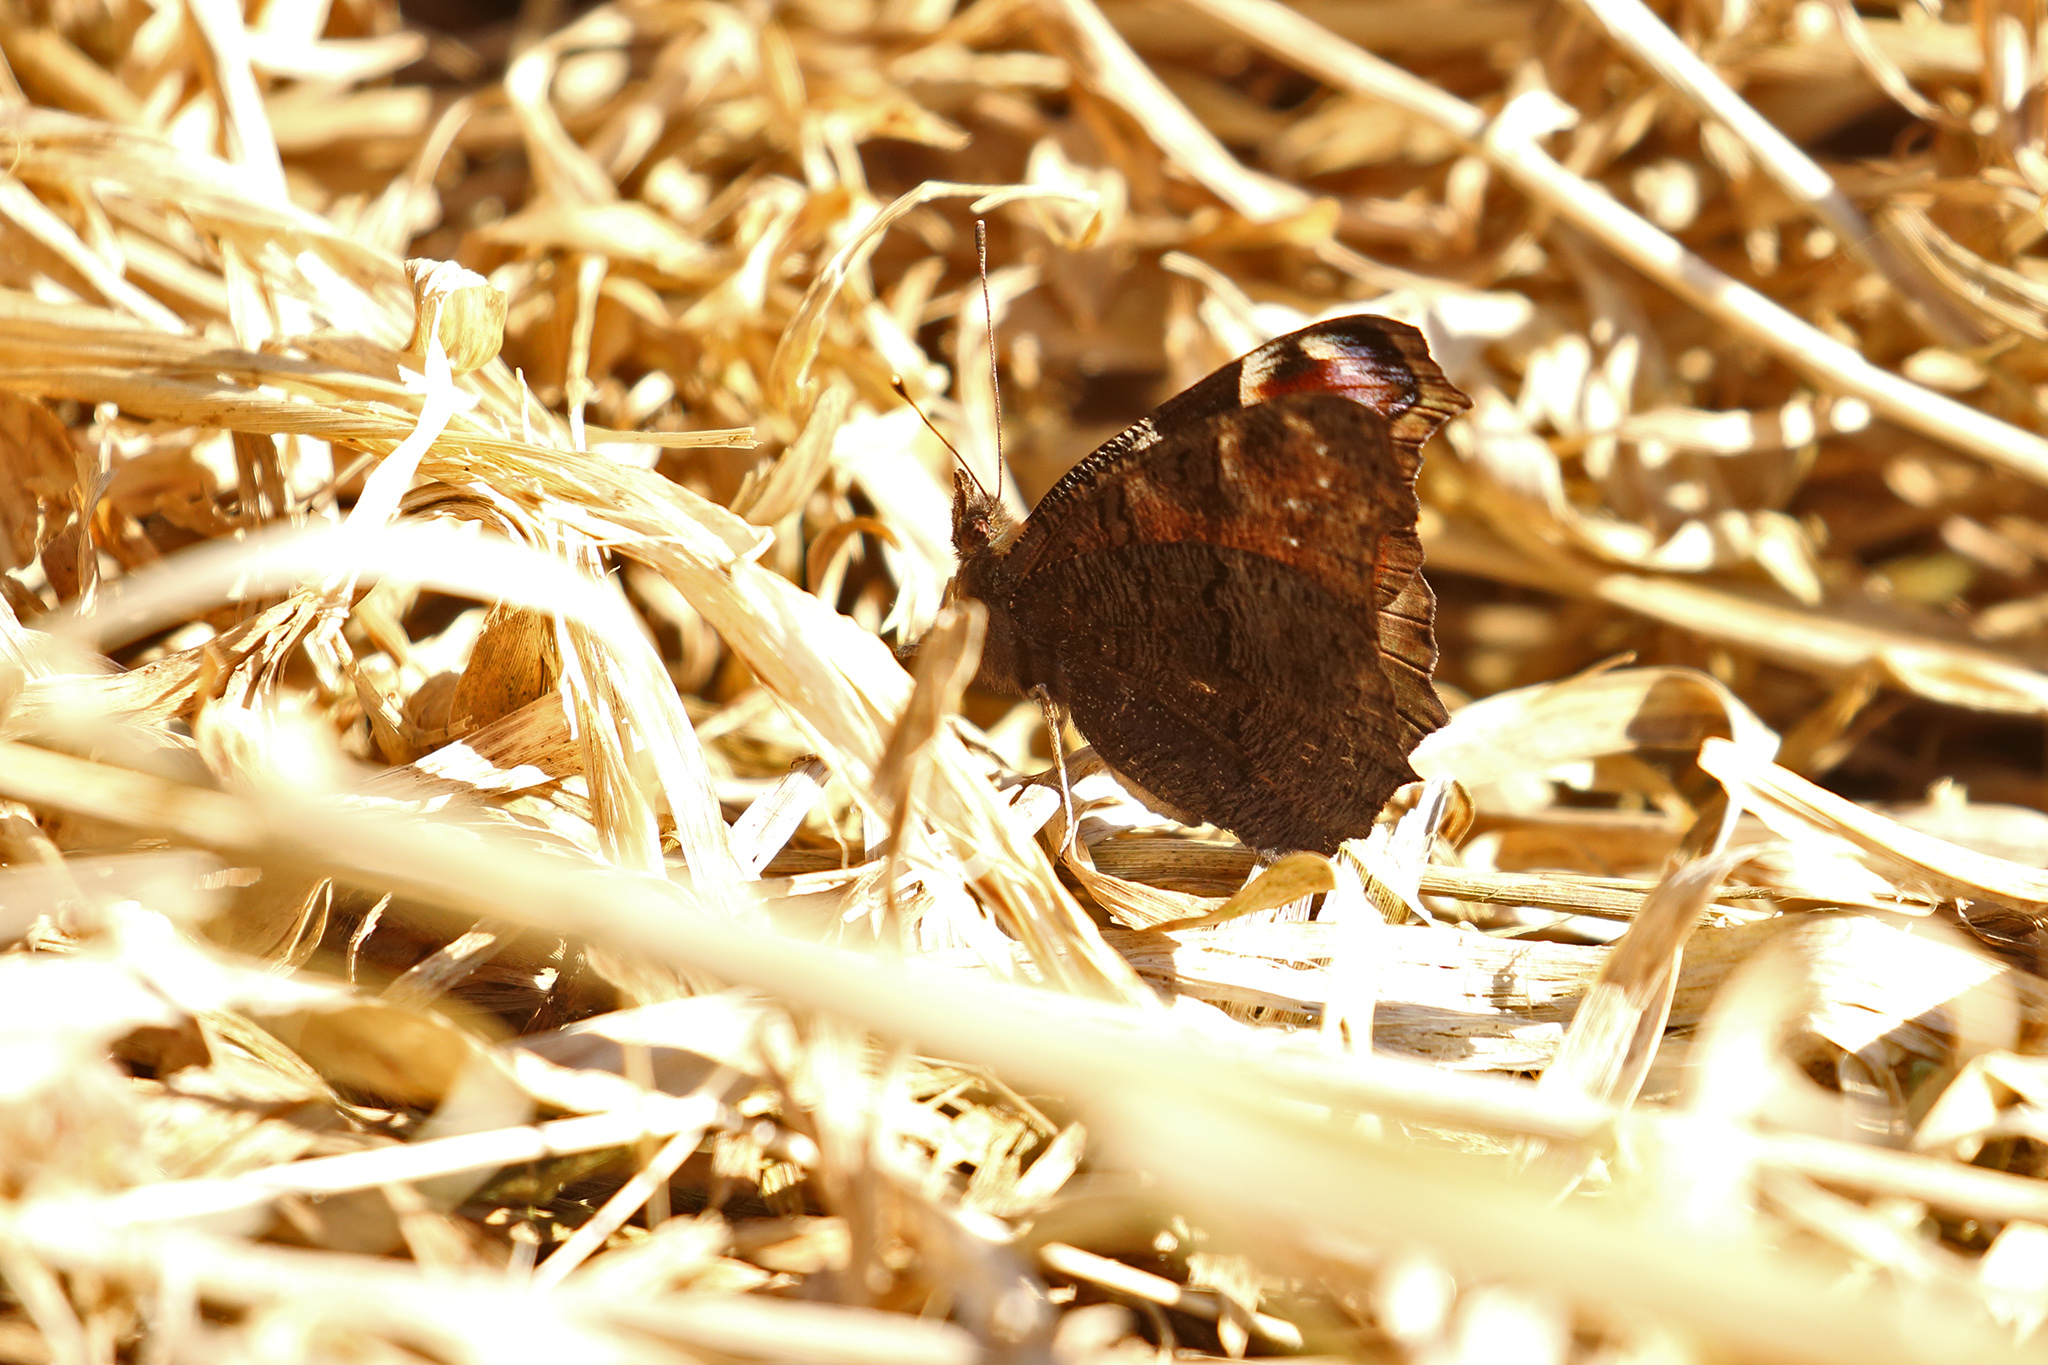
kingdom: Animalia
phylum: Arthropoda
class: Insecta
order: Lepidoptera
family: Nymphalidae
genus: Aglais
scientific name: Aglais io
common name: Peacock
